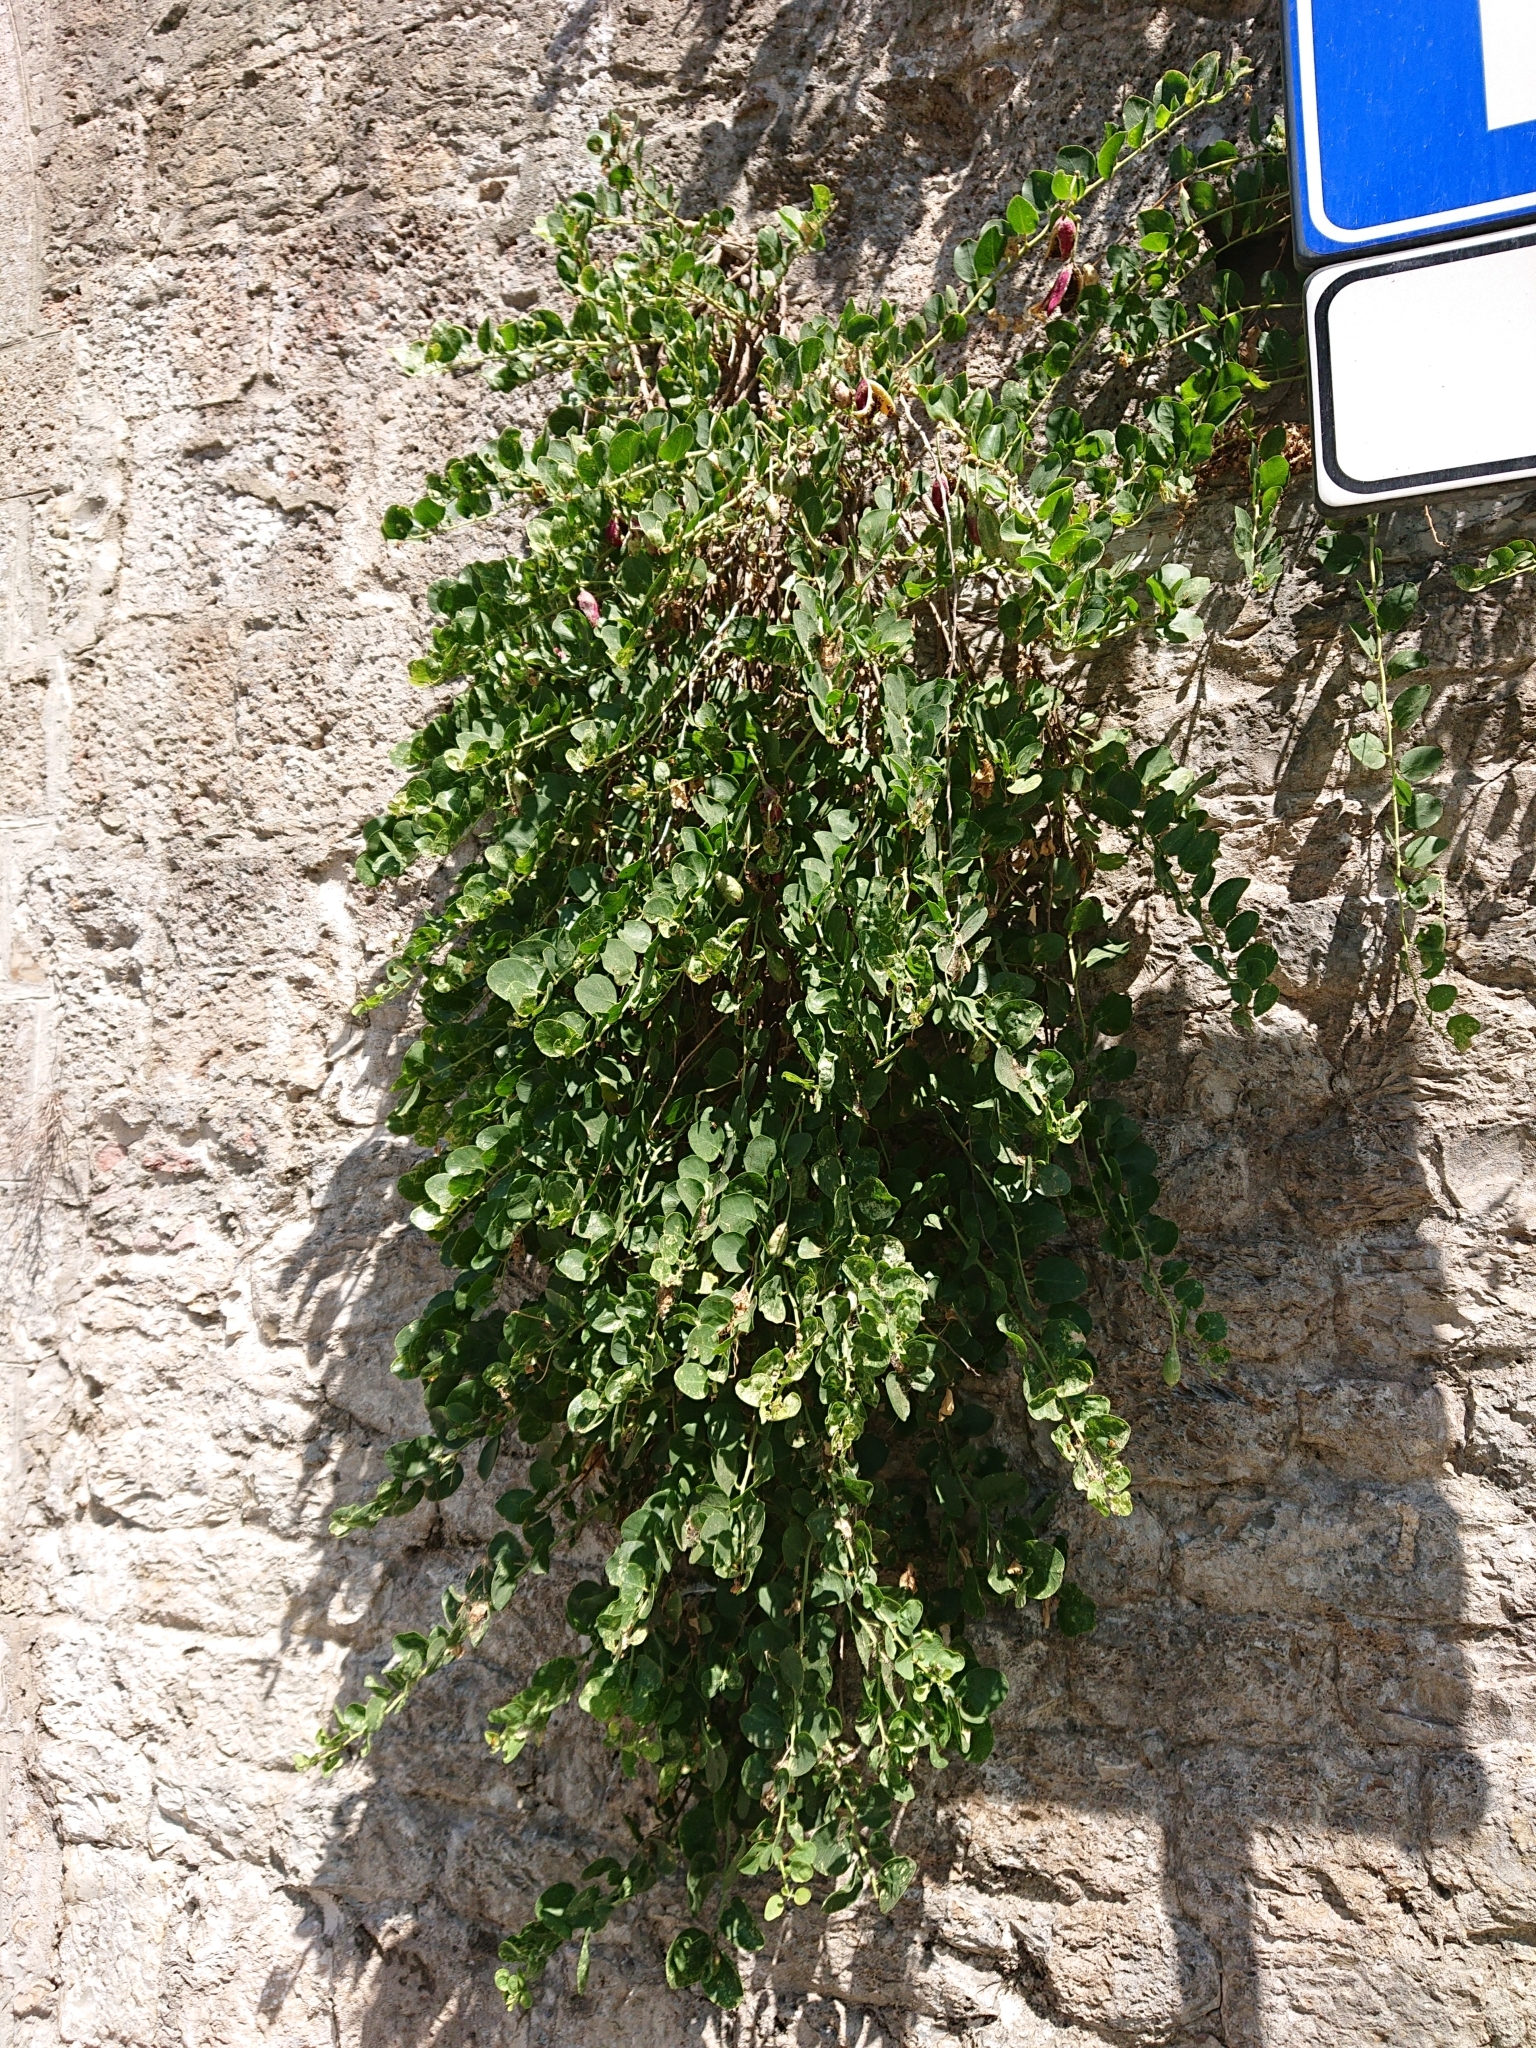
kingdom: Plantae
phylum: Tracheophyta
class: Magnoliopsida
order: Brassicales
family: Capparaceae
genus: Capparis
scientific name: Capparis spinosa
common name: Caper
